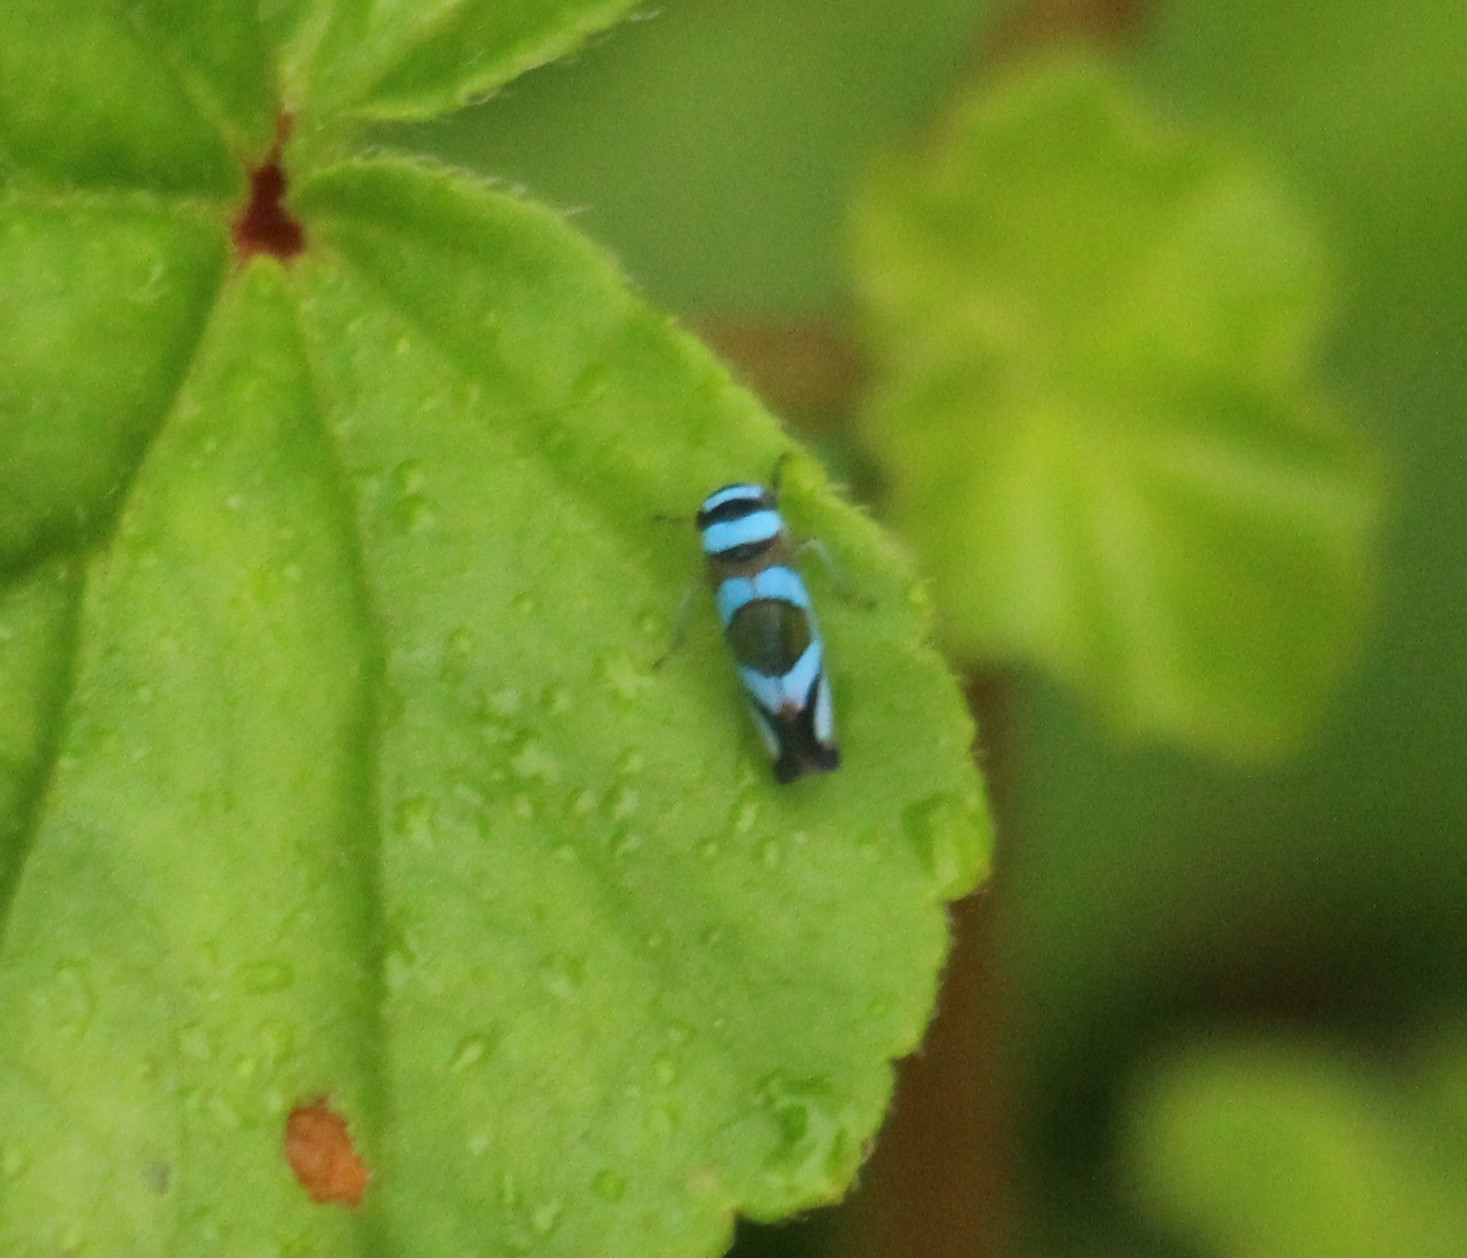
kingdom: Animalia
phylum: Arthropoda
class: Insecta
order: Hemiptera
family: Cicadellidae
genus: Macugonalia
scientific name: Macugonalia moesta
